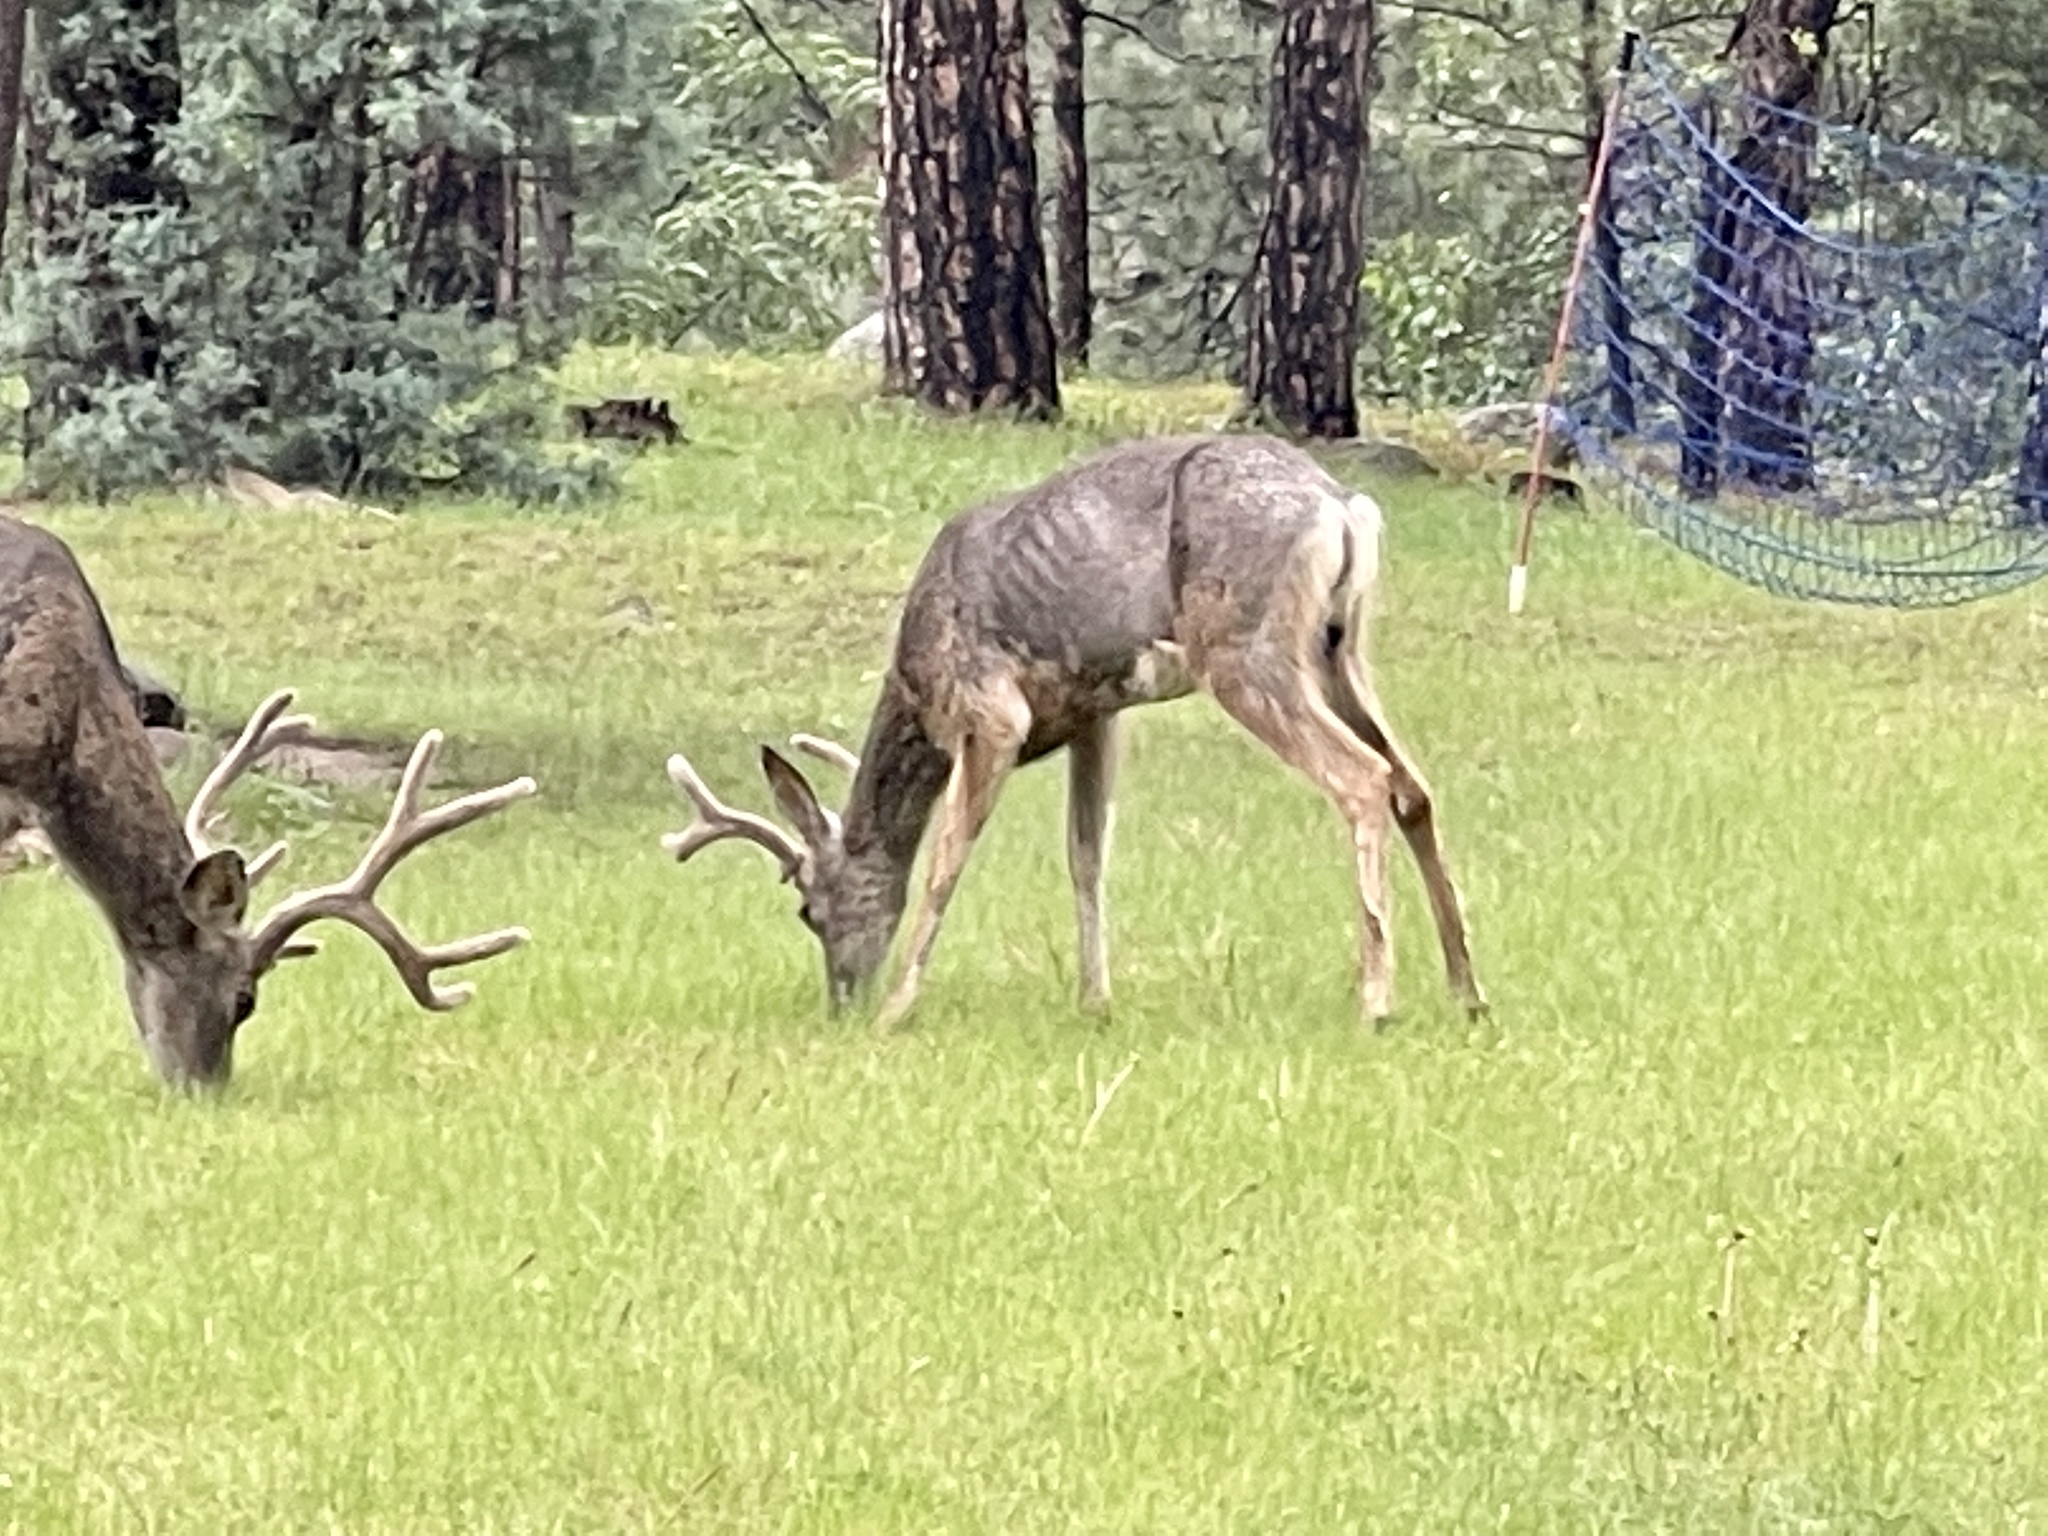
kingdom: Animalia
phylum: Chordata
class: Mammalia
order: Artiodactyla
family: Cervidae
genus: Odocoileus
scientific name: Odocoileus hemionus
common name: Mule deer
